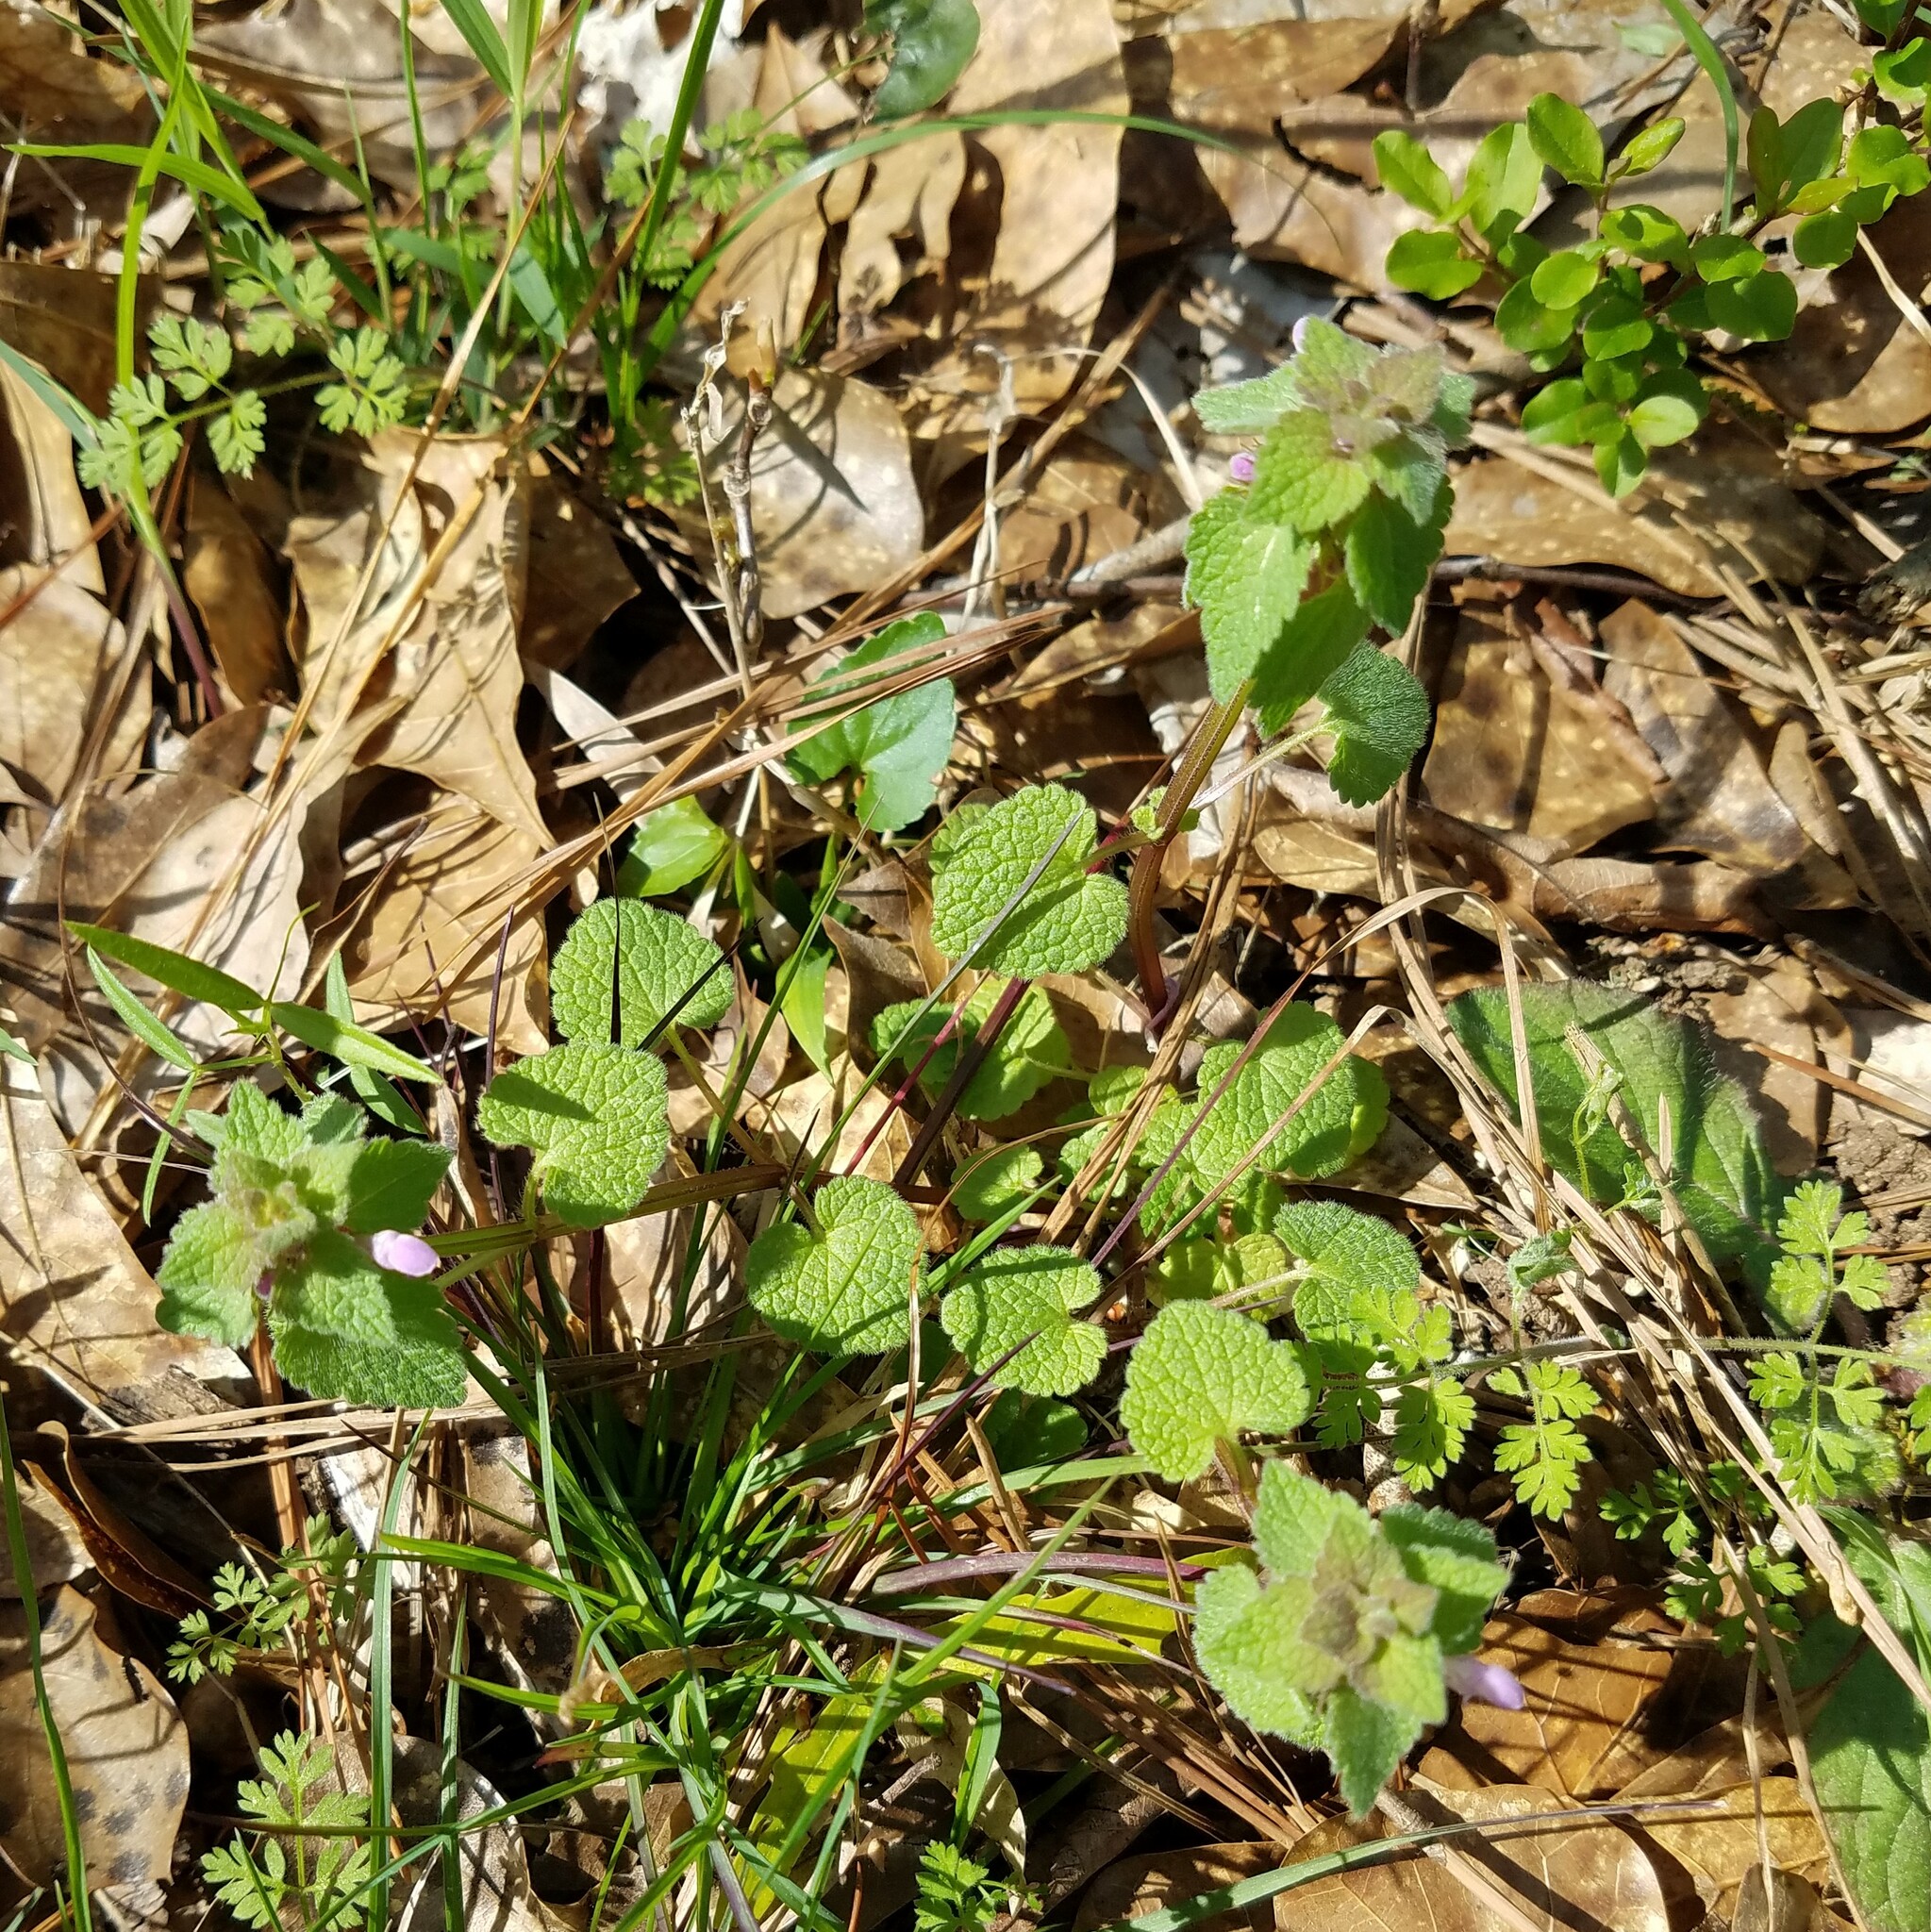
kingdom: Plantae
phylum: Tracheophyta
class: Magnoliopsida
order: Lamiales
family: Lamiaceae
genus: Lamium
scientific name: Lamium purpureum
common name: Red dead-nettle
